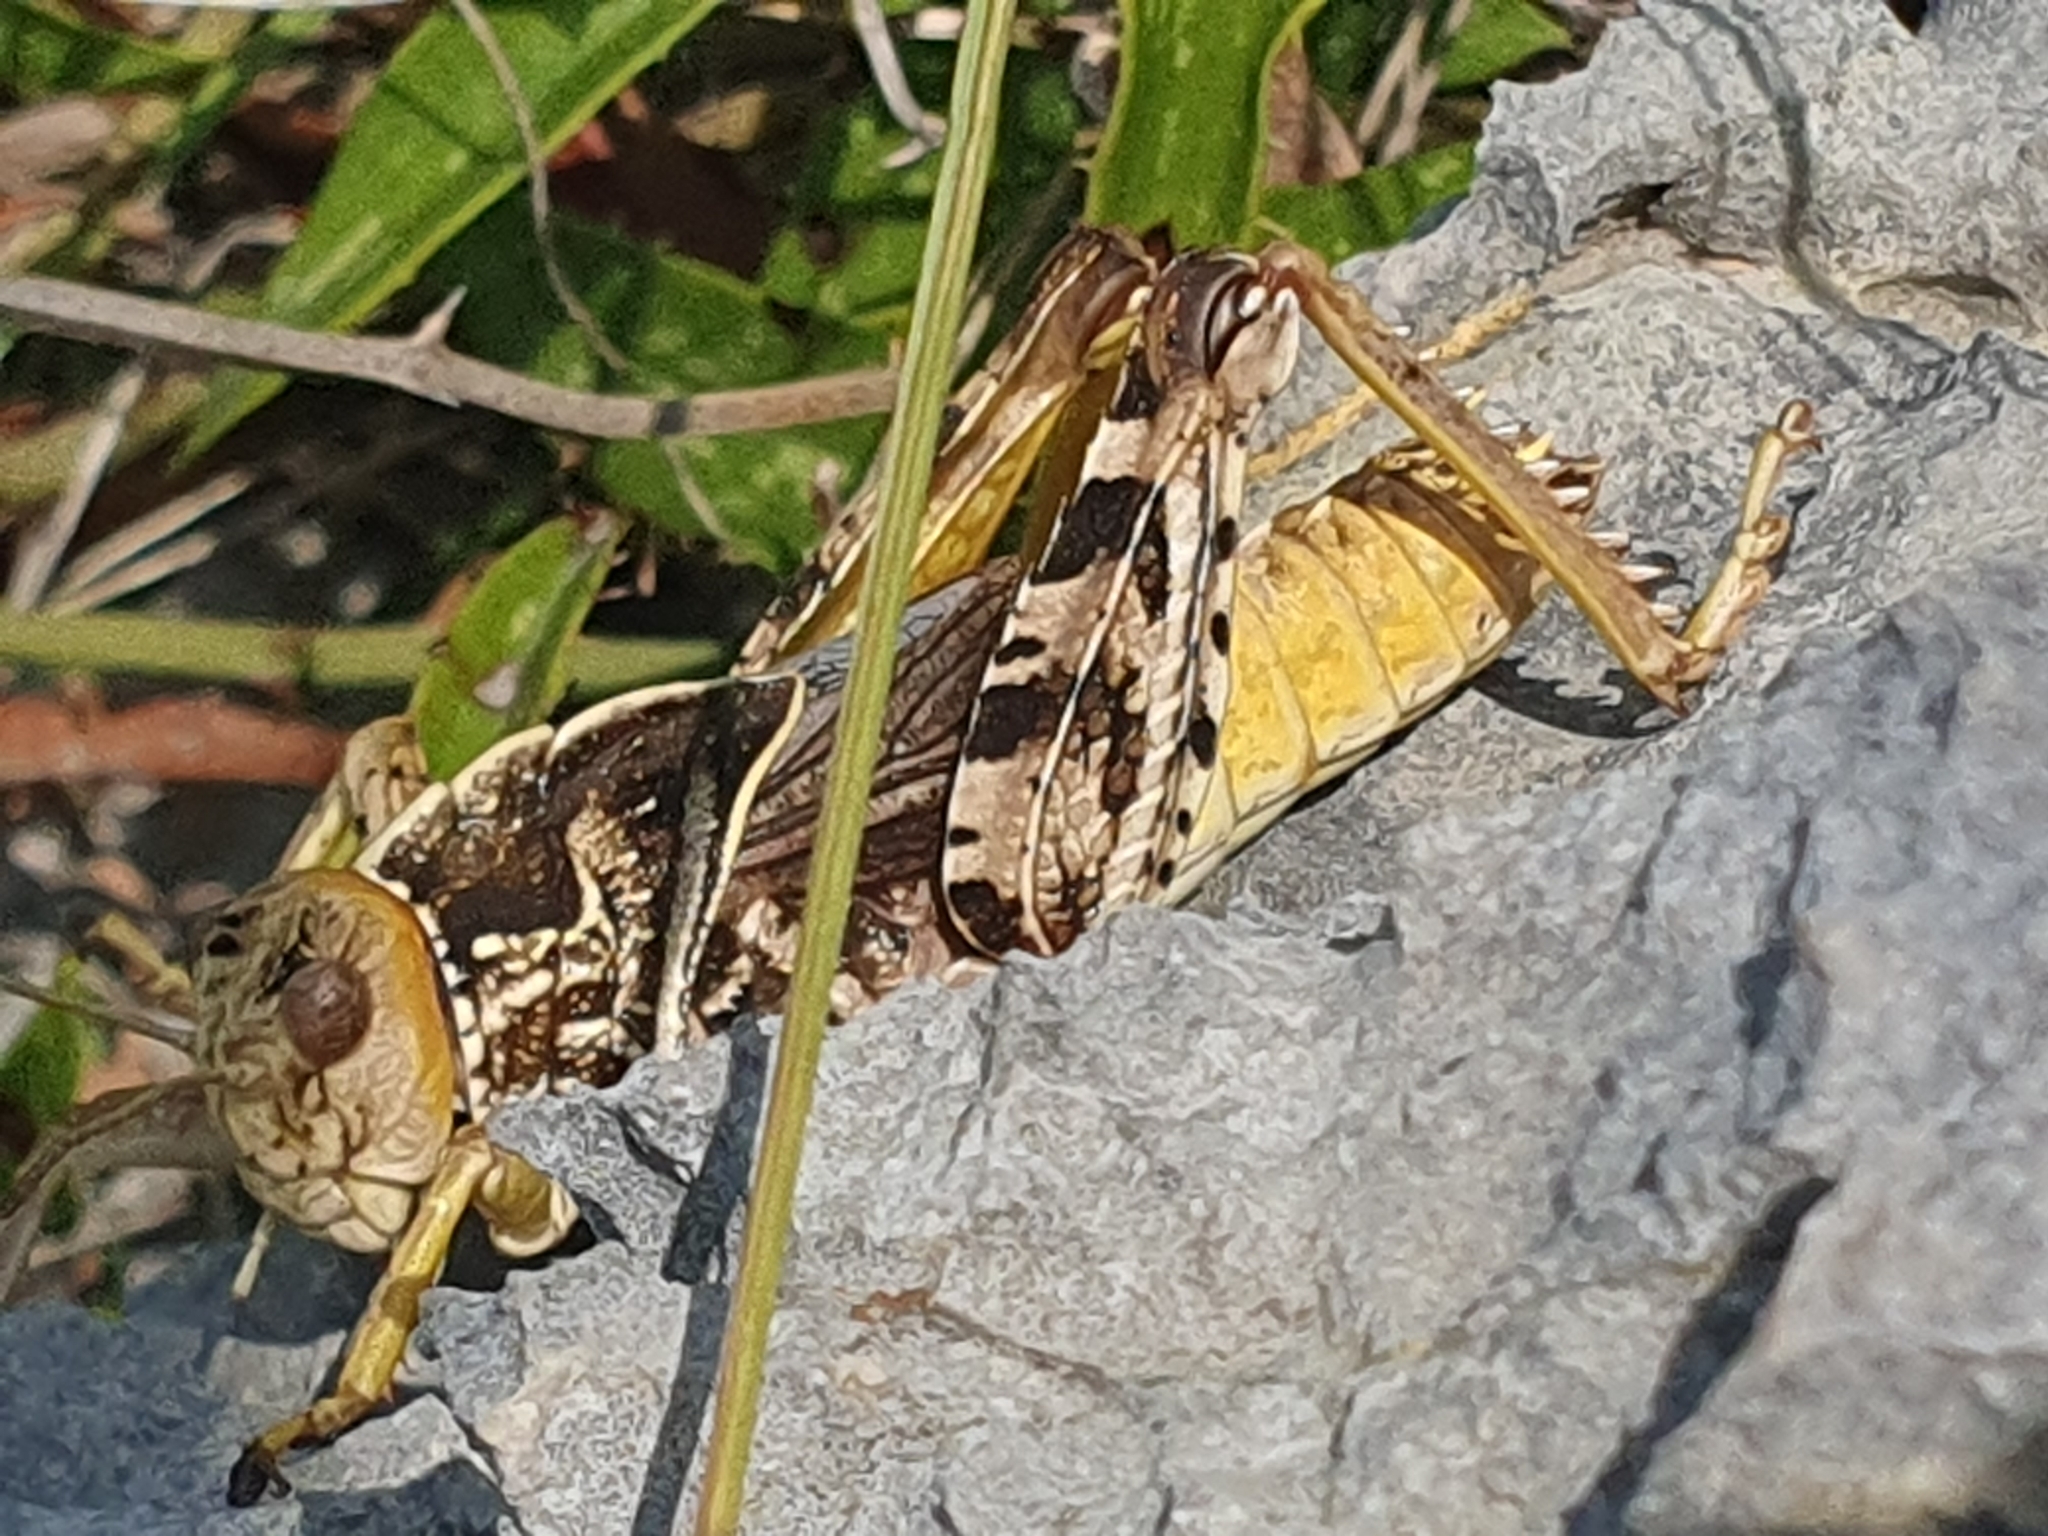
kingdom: Animalia
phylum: Arthropoda
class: Insecta
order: Orthoptera
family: Pamphagidae
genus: Prionotropis
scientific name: Prionotropis hystrix
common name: Eastern stone grasshopper
